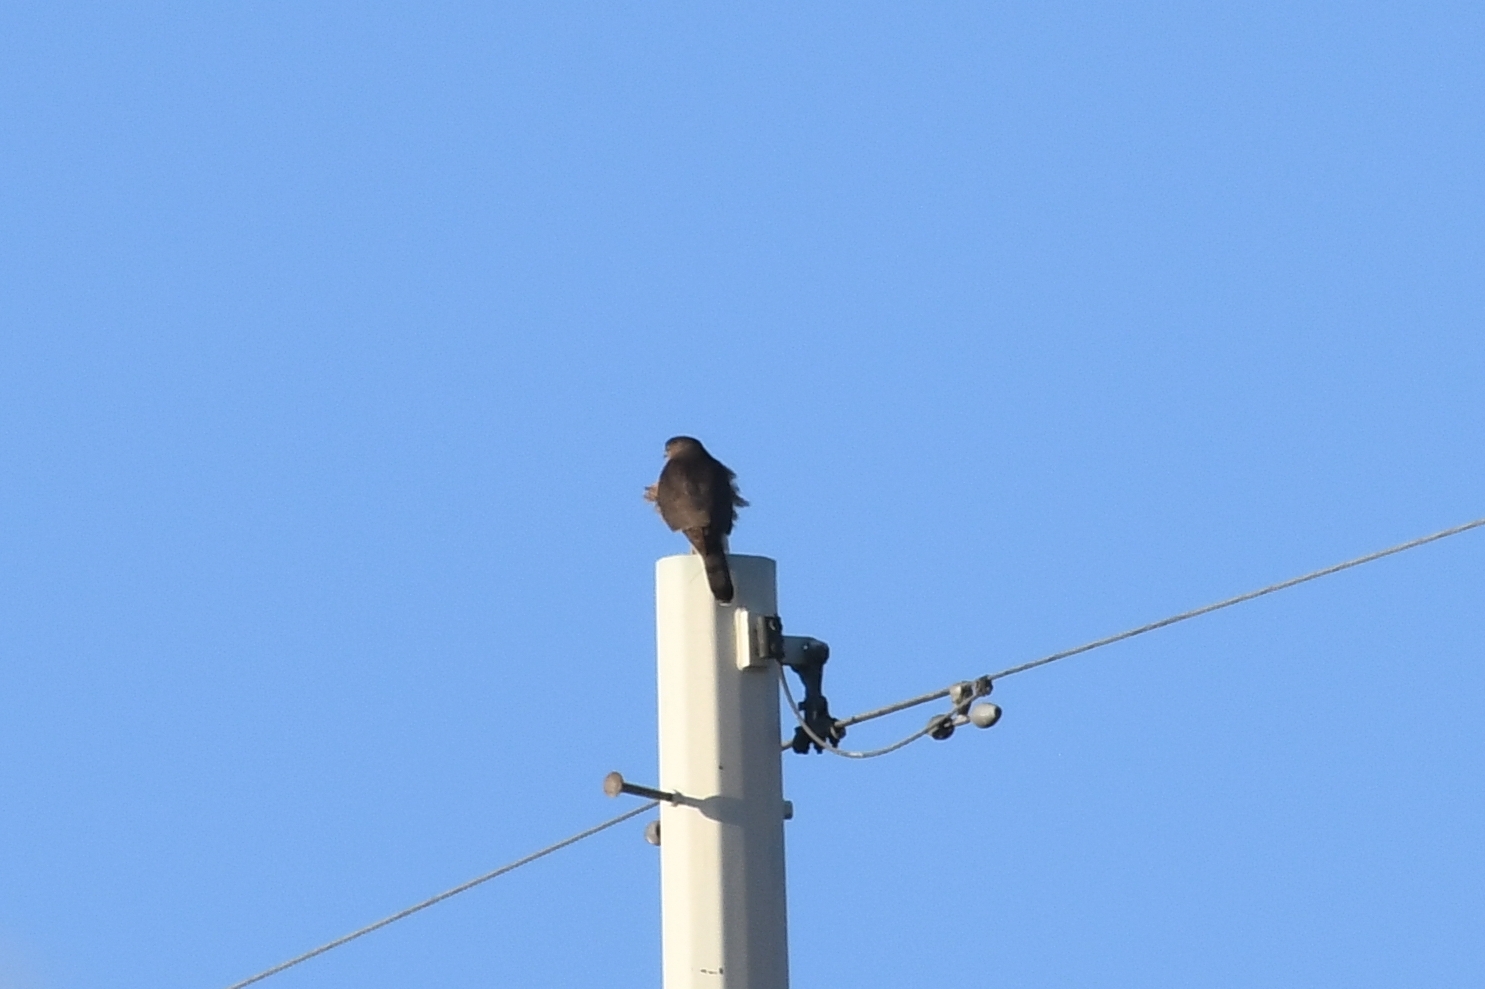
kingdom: Animalia
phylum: Chordata
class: Aves
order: Accipitriformes
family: Accipitridae
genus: Accipiter
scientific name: Accipiter cooperii
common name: Cooper's hawk
